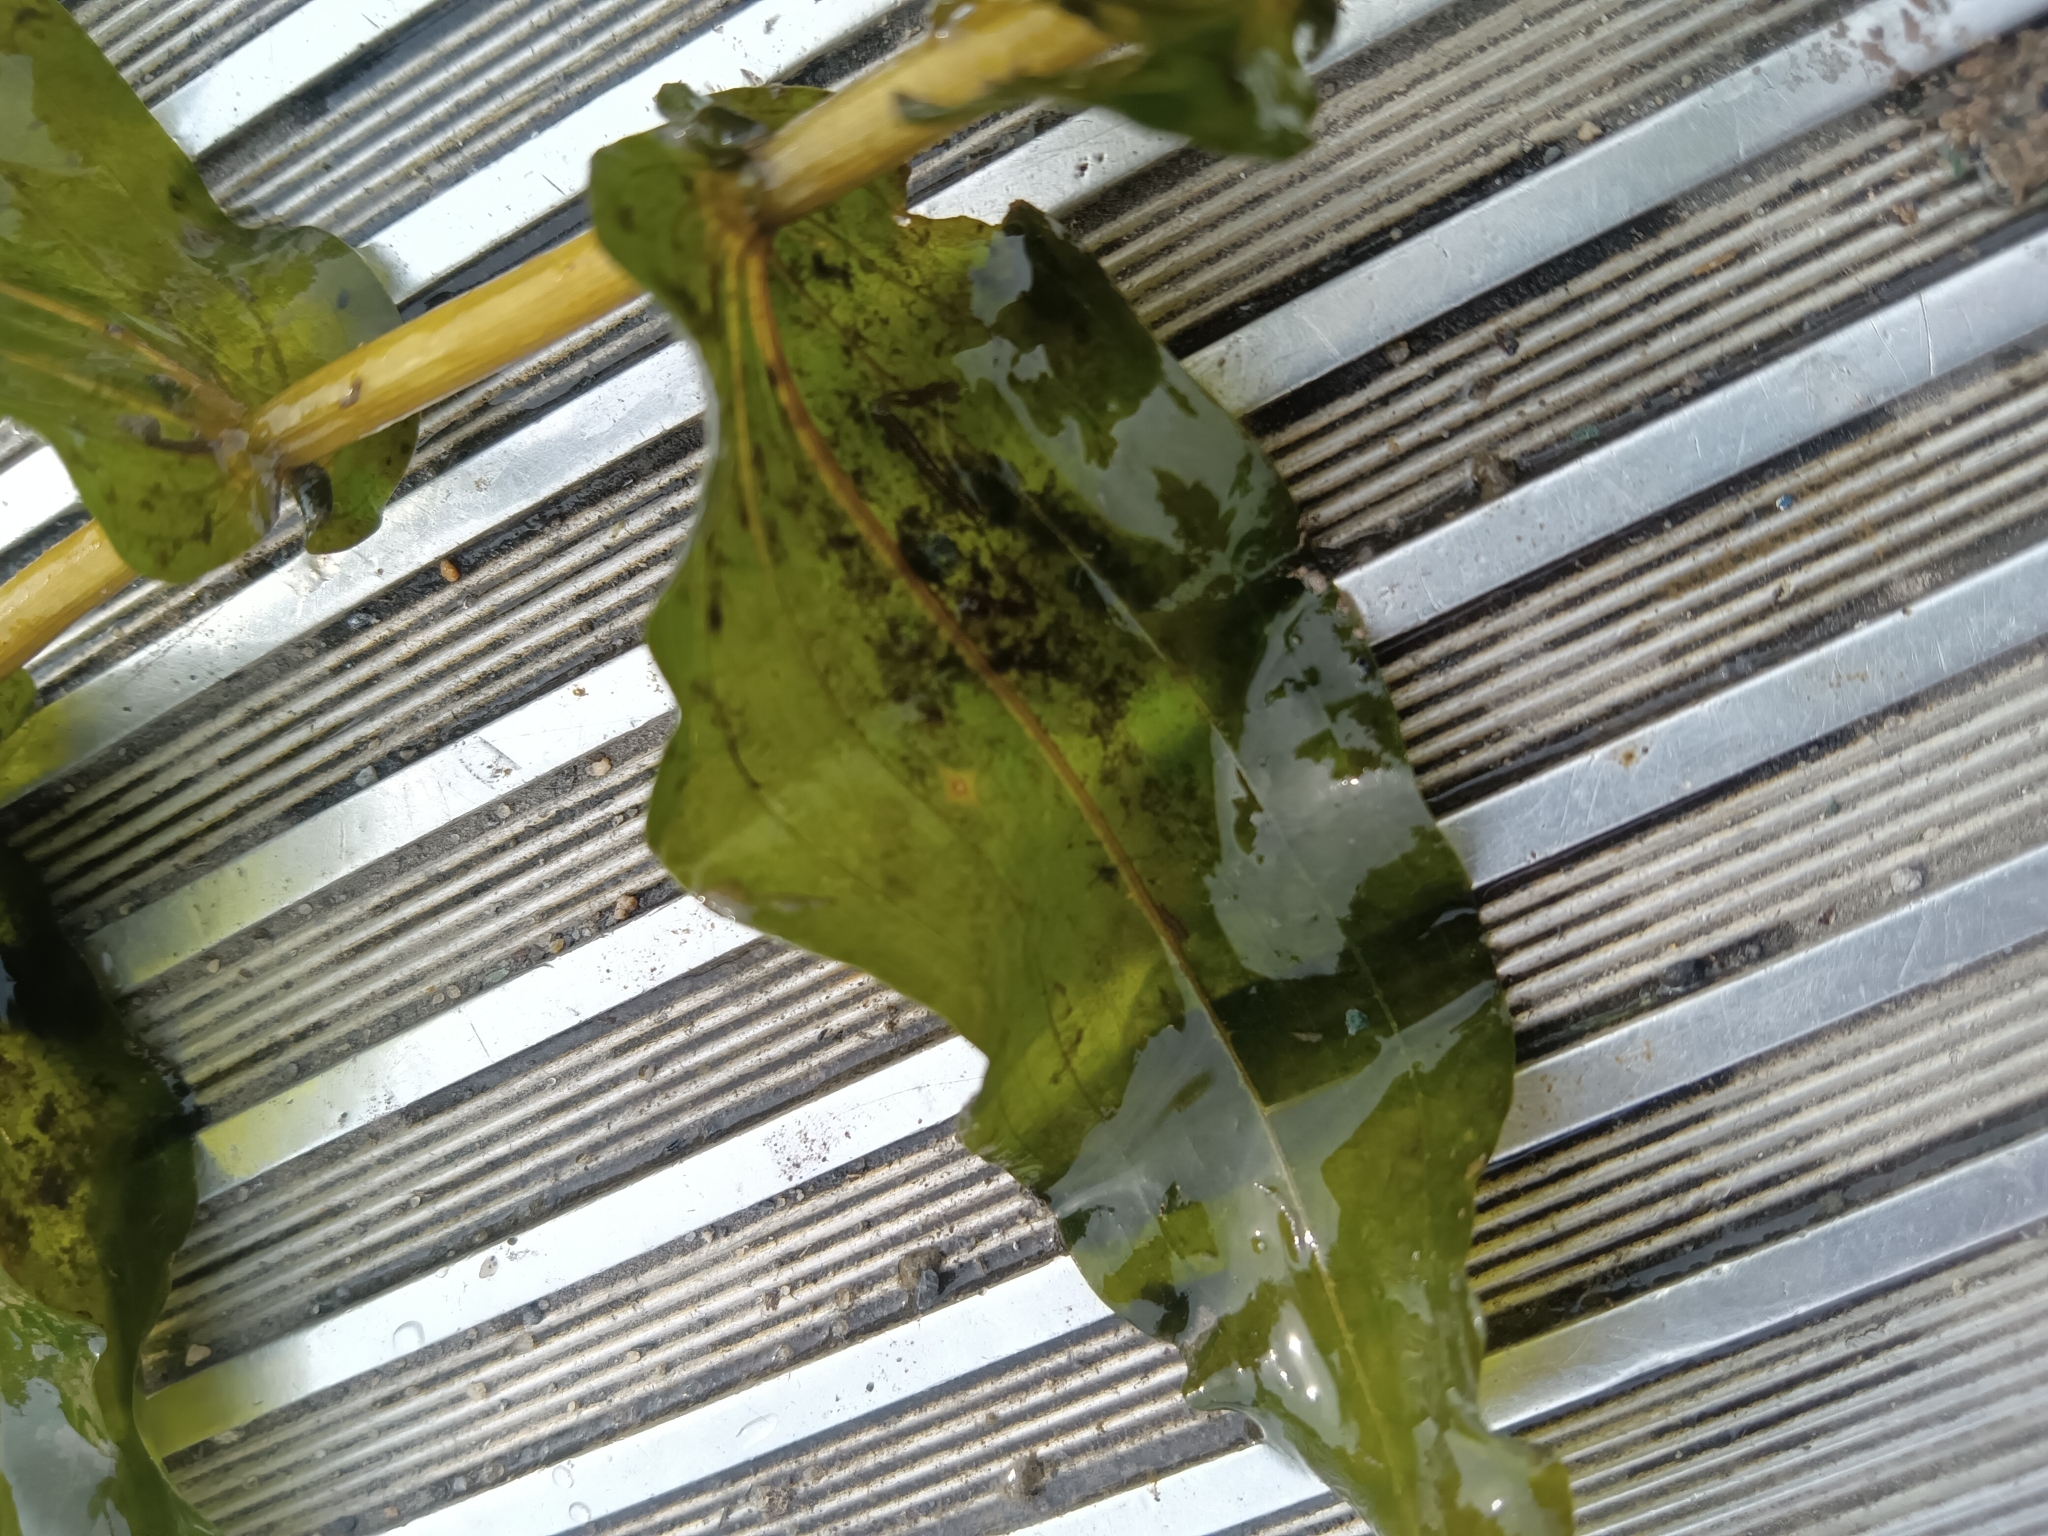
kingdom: Plantae
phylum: Tracheophyta
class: Liliopsida
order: Alismatales
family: Potamogetonaceae
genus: Potamogeton
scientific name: Potamogeton richardsonii
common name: Richardson's pondweed
